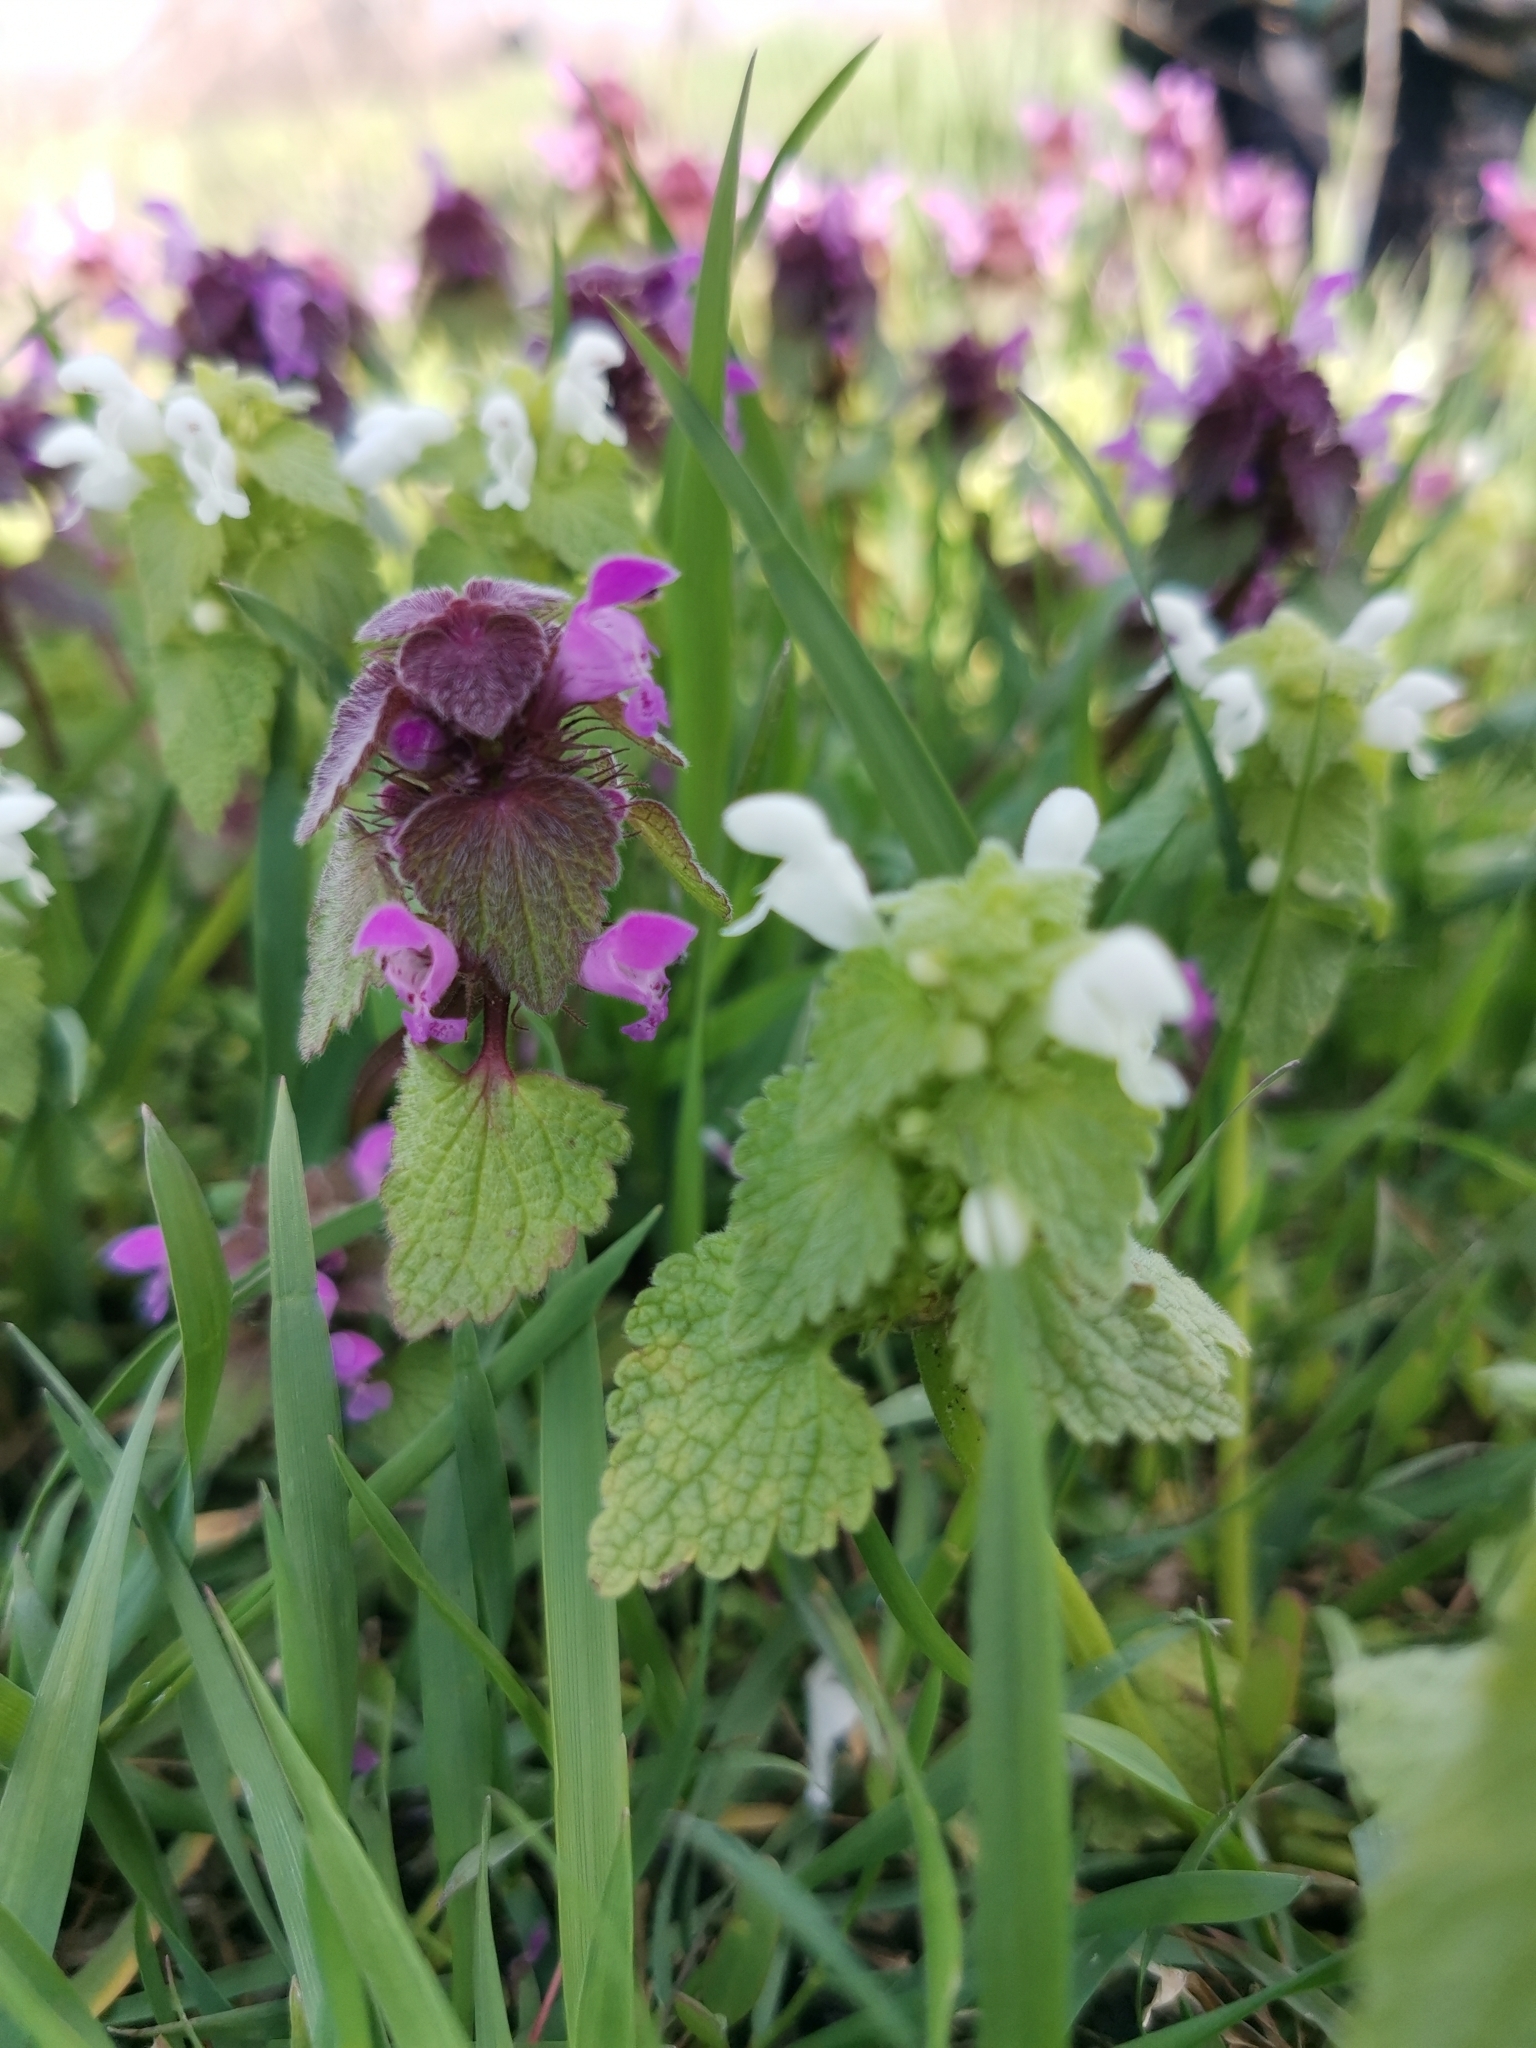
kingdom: Plantae
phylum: Tracheophyta
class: Magnoliopsida
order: Lamiales
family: Lamiaceae
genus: Lamium
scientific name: Lamium purpureum
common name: Red dead-nettle
